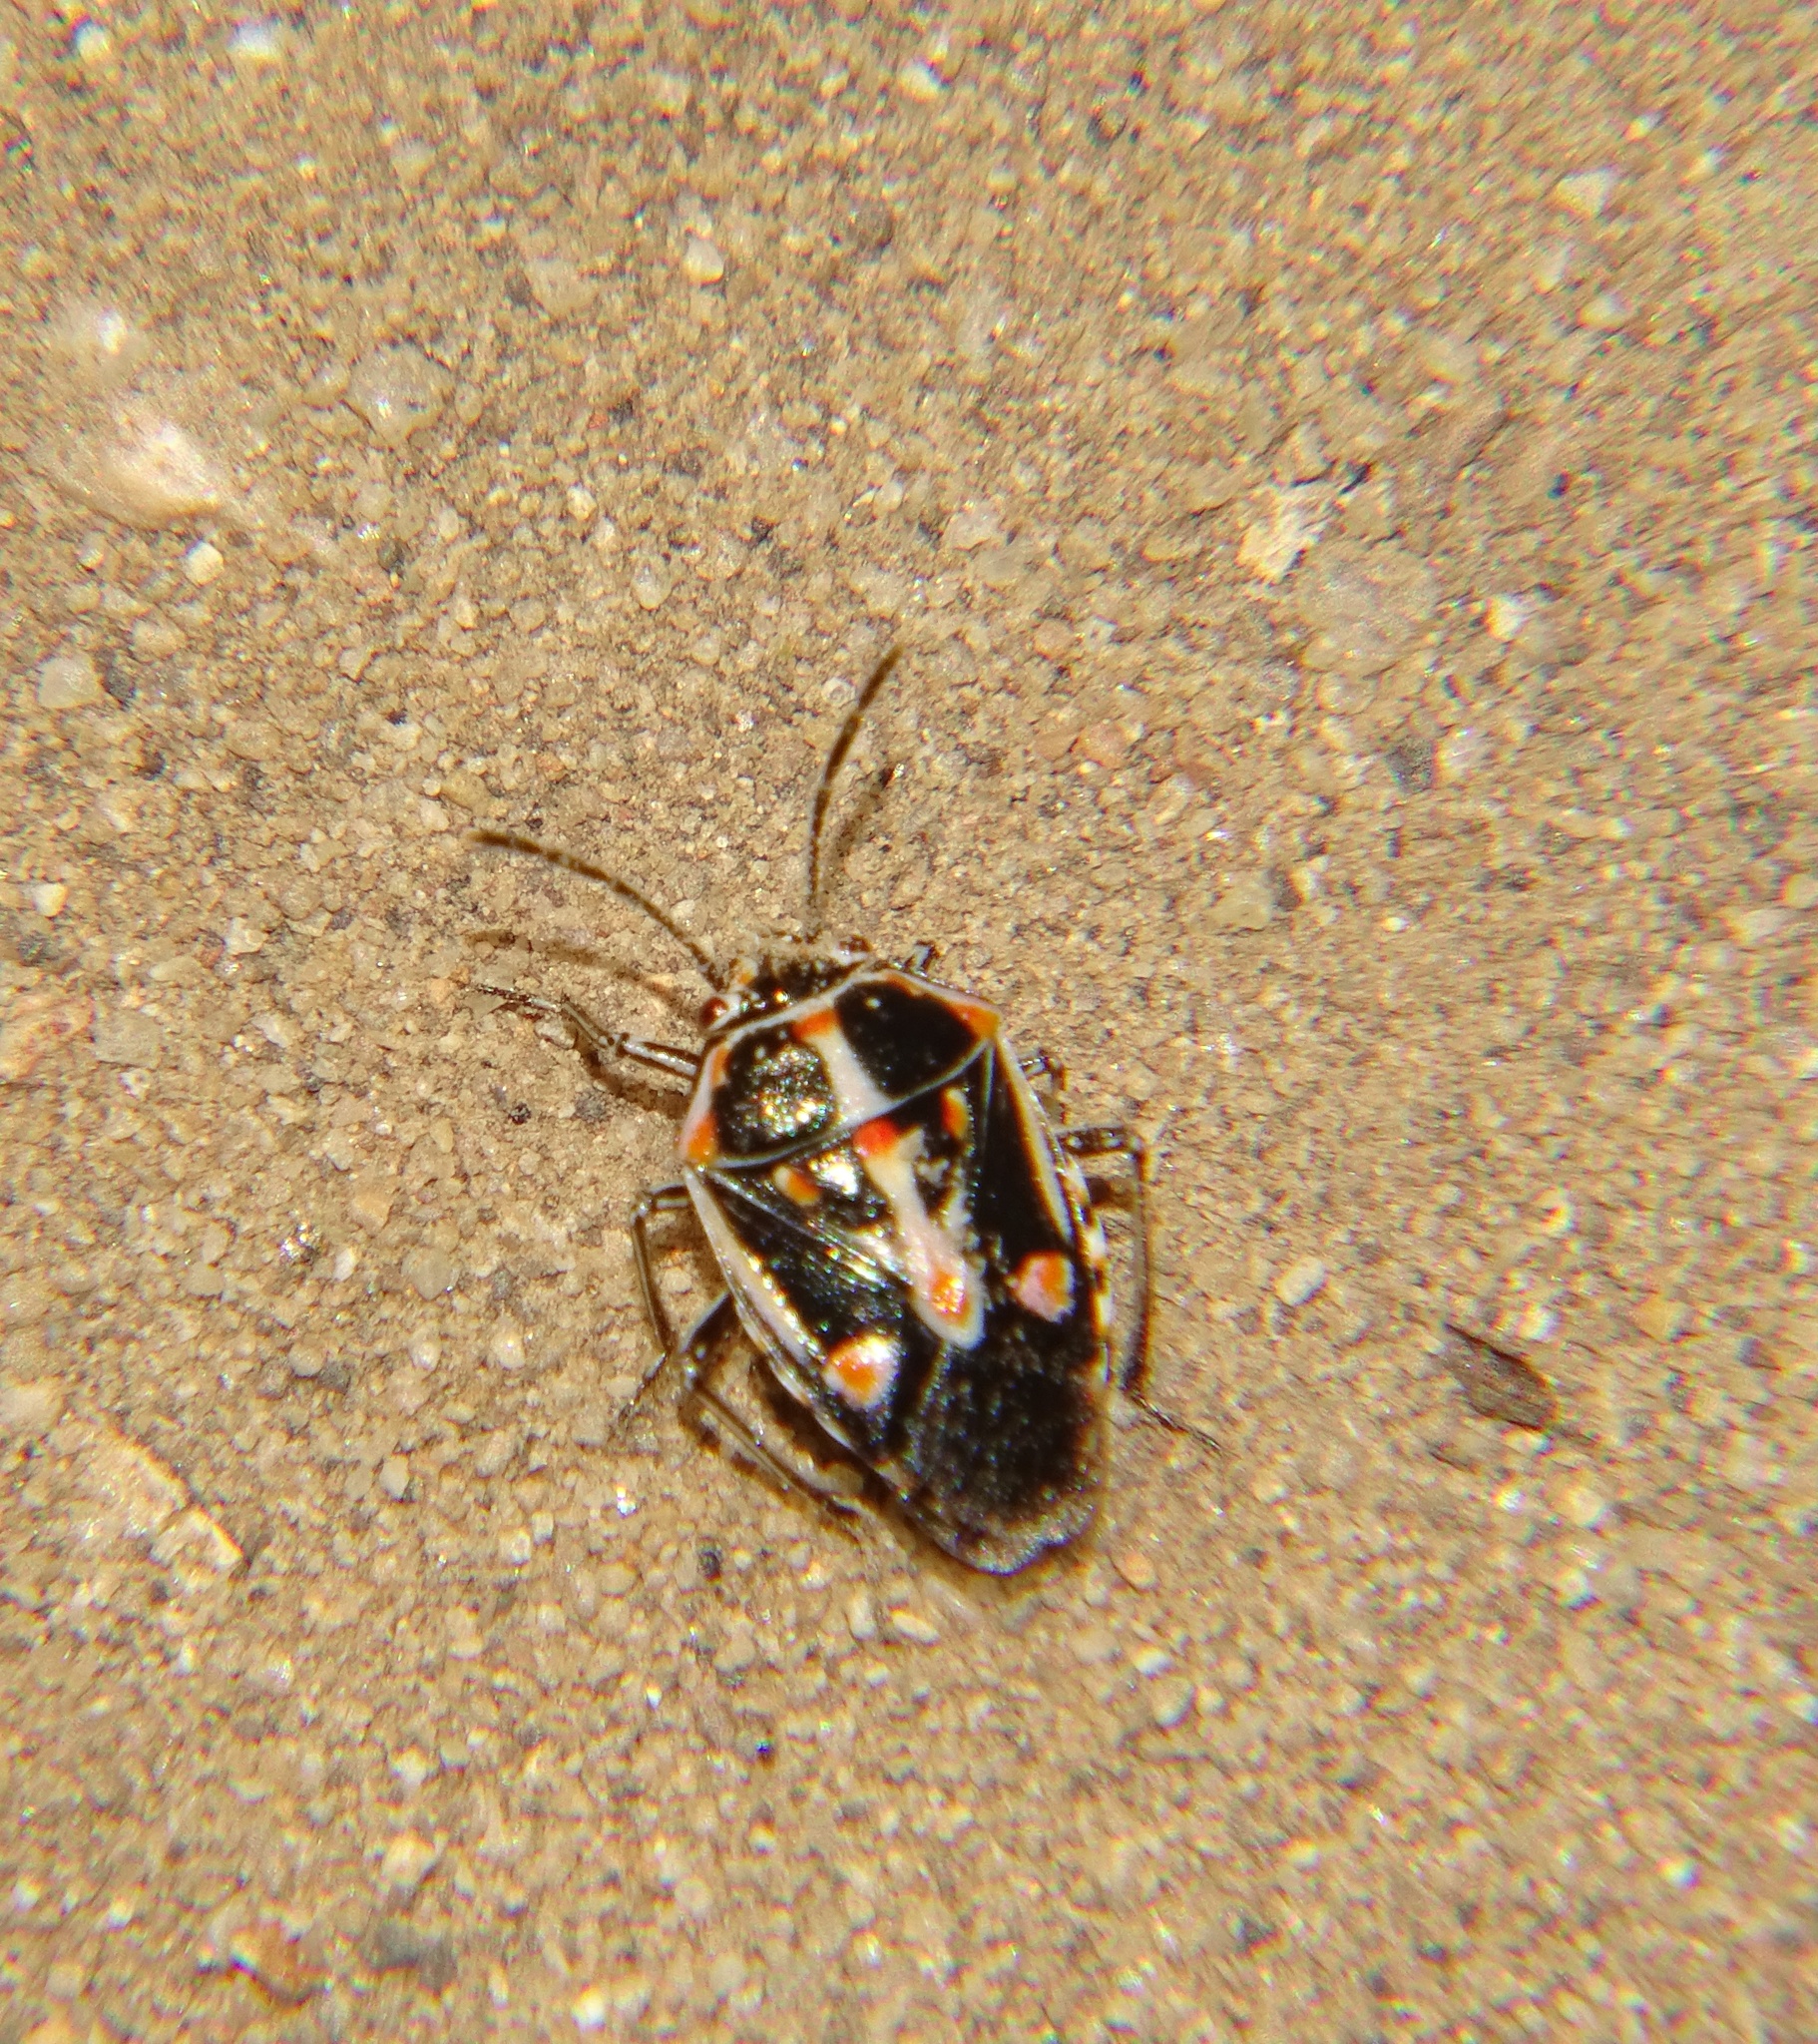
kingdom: Animalia
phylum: Arthropoda
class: Insecta
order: Hemiptera
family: Pentatomidae
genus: Bagrada
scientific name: Bagrada hilaris
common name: Bagrada bug
